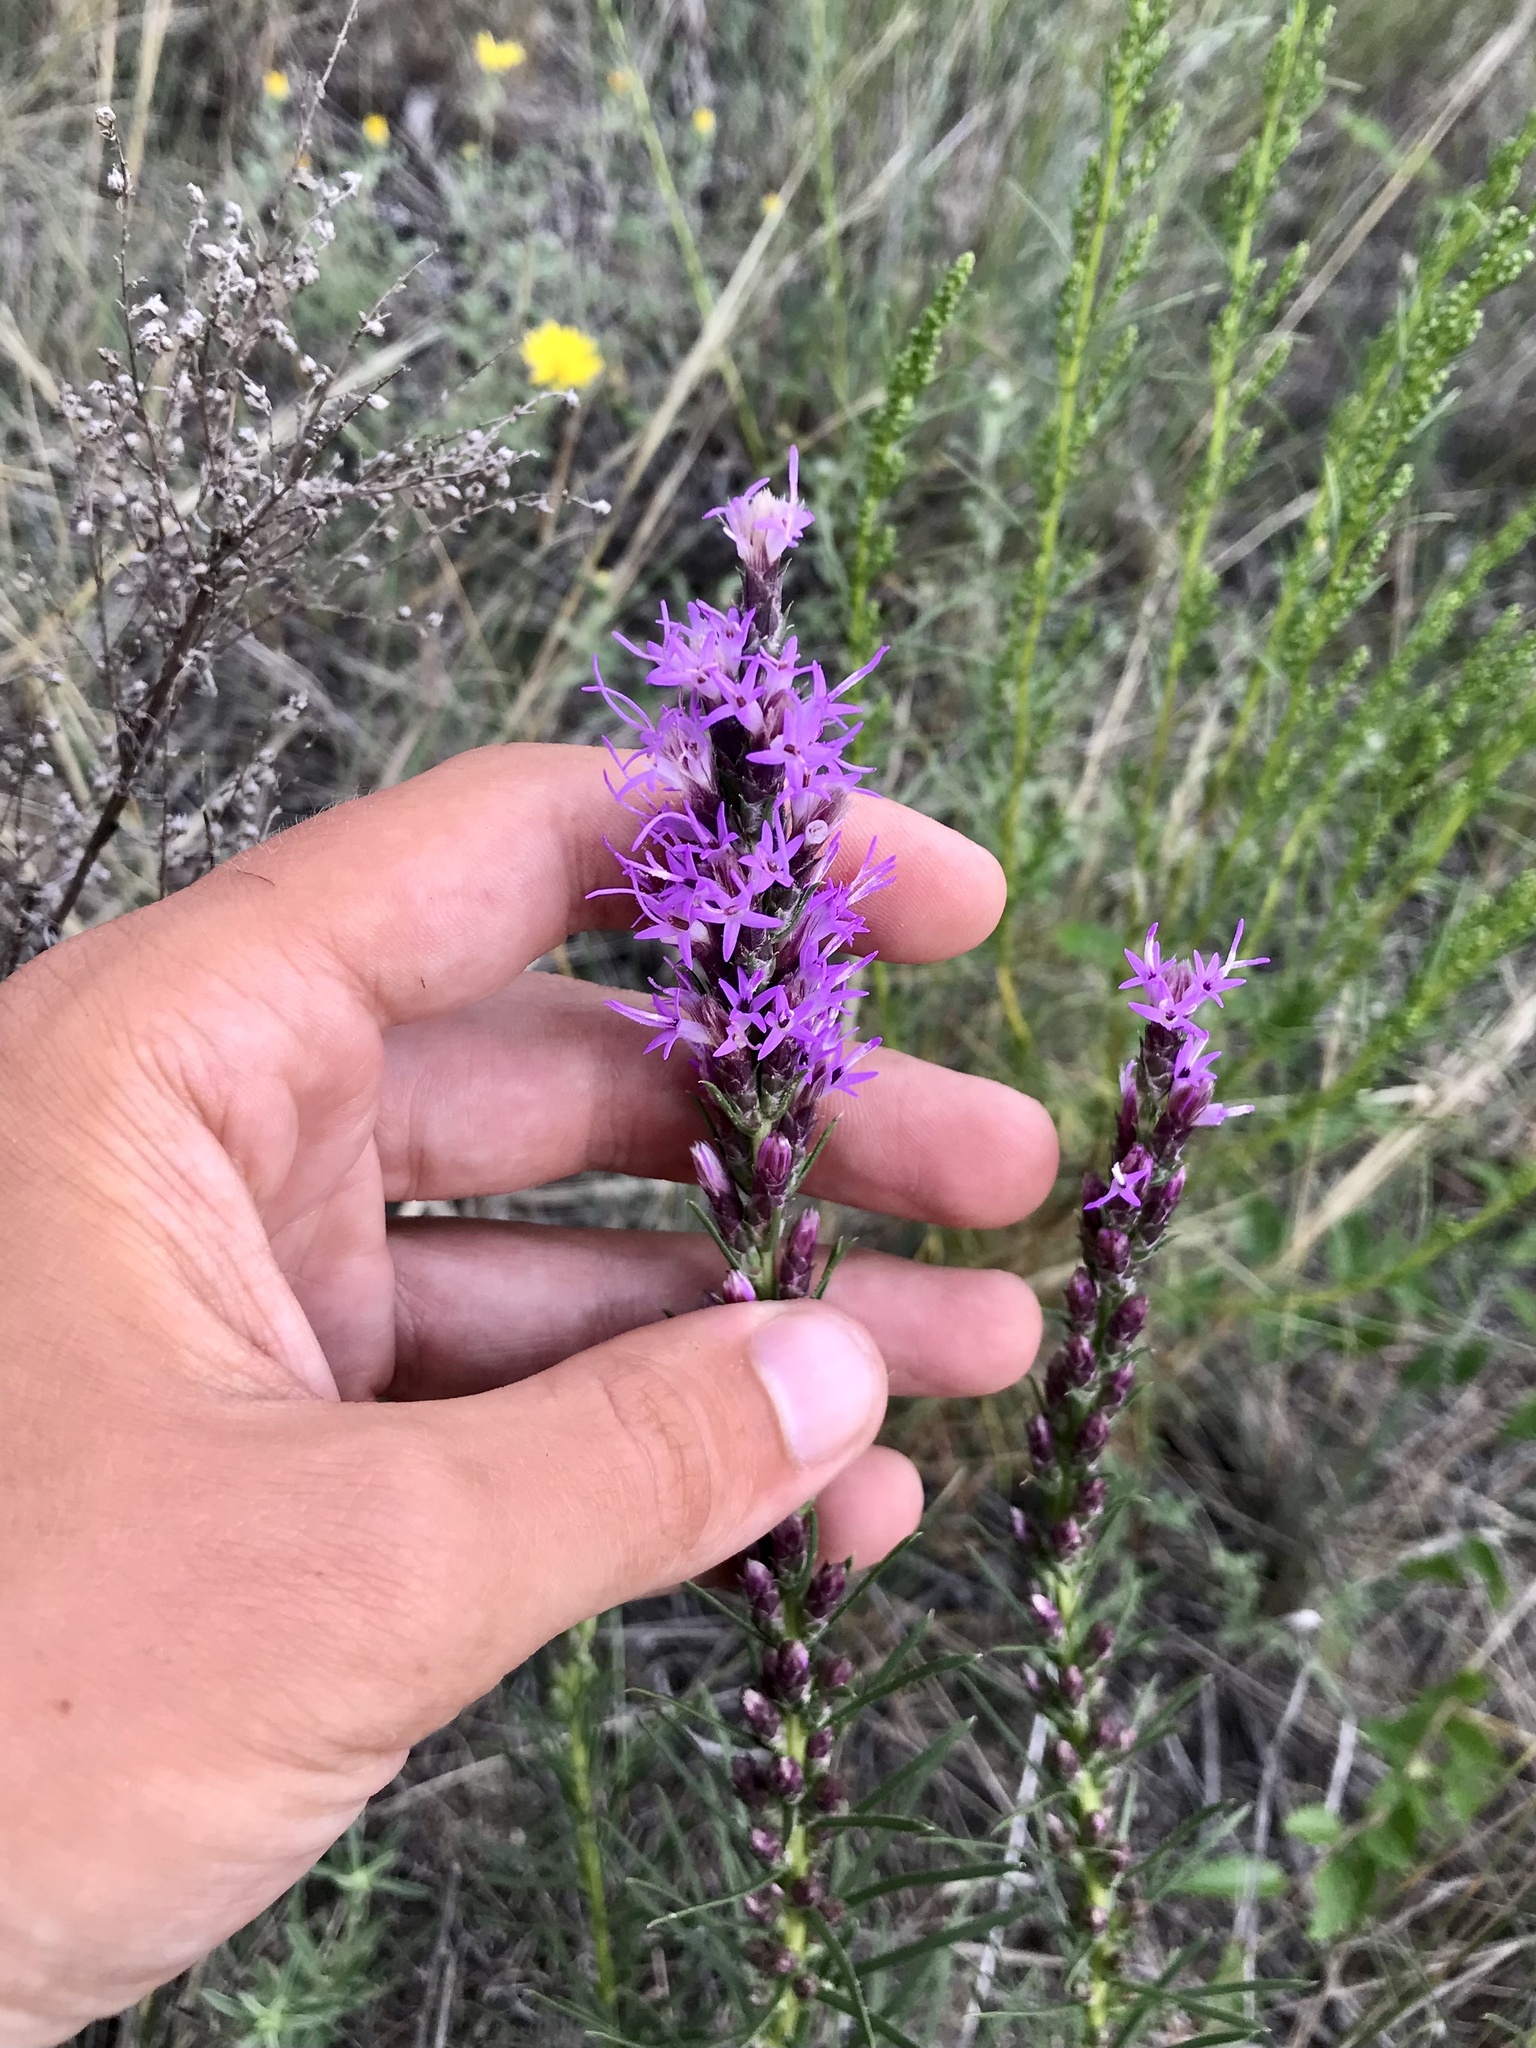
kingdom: Plantae
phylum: Tracheophyta
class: Magnoliopsida
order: Asterales
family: Asteraceae
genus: Liatris
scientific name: Liatris punctata
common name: Dotted gayfeather
